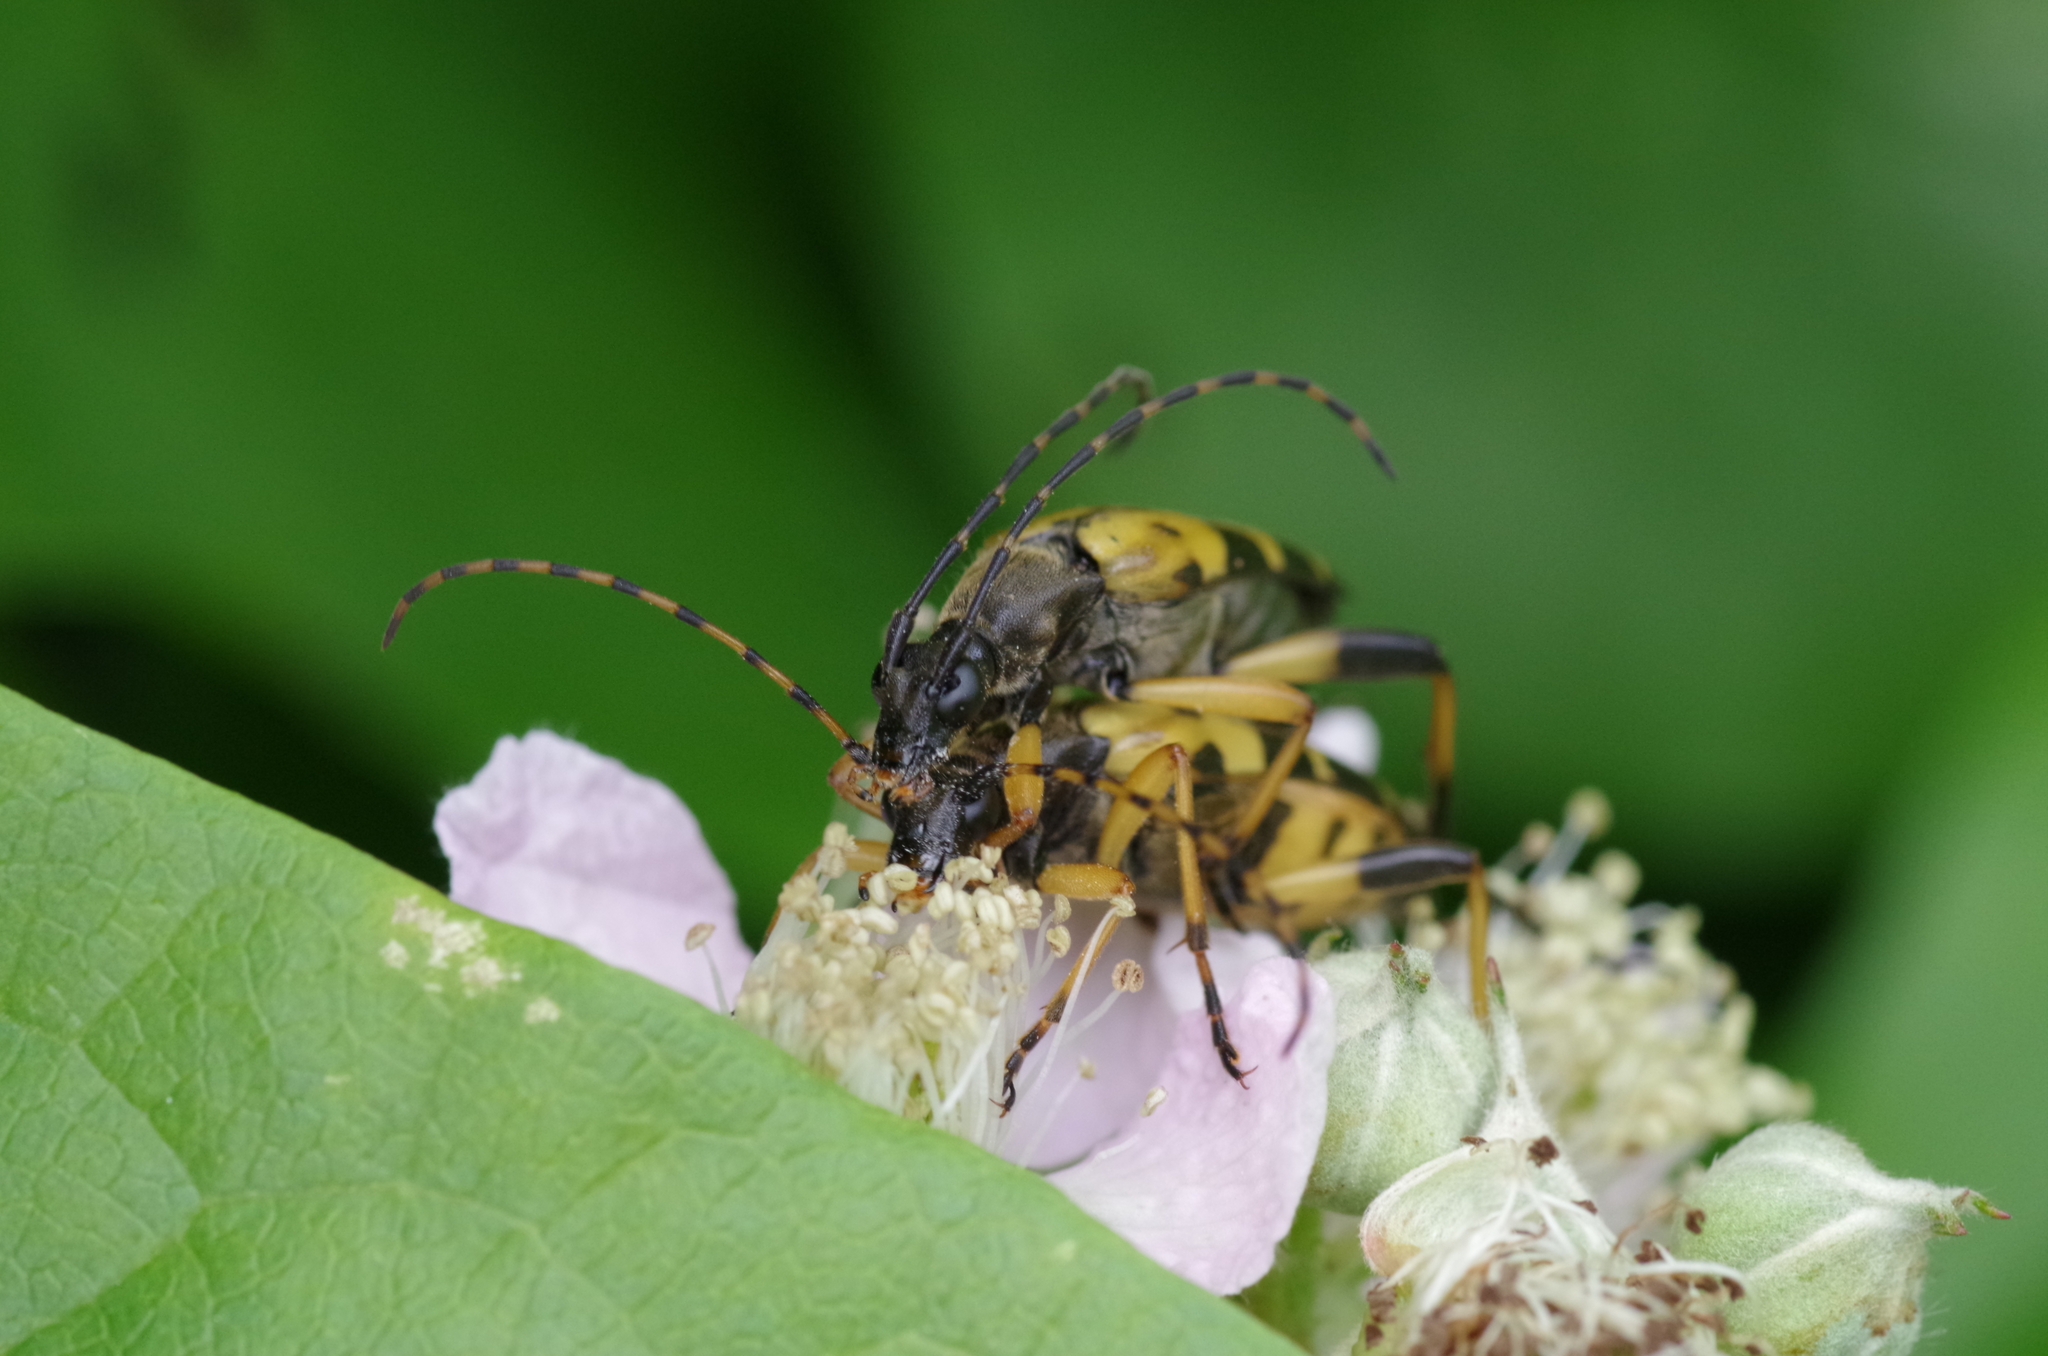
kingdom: Animalia
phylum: Arthropoda
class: Insecta
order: Coleoptera
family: Cerambycidae
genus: Rutpela
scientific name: Rutpela maculata
